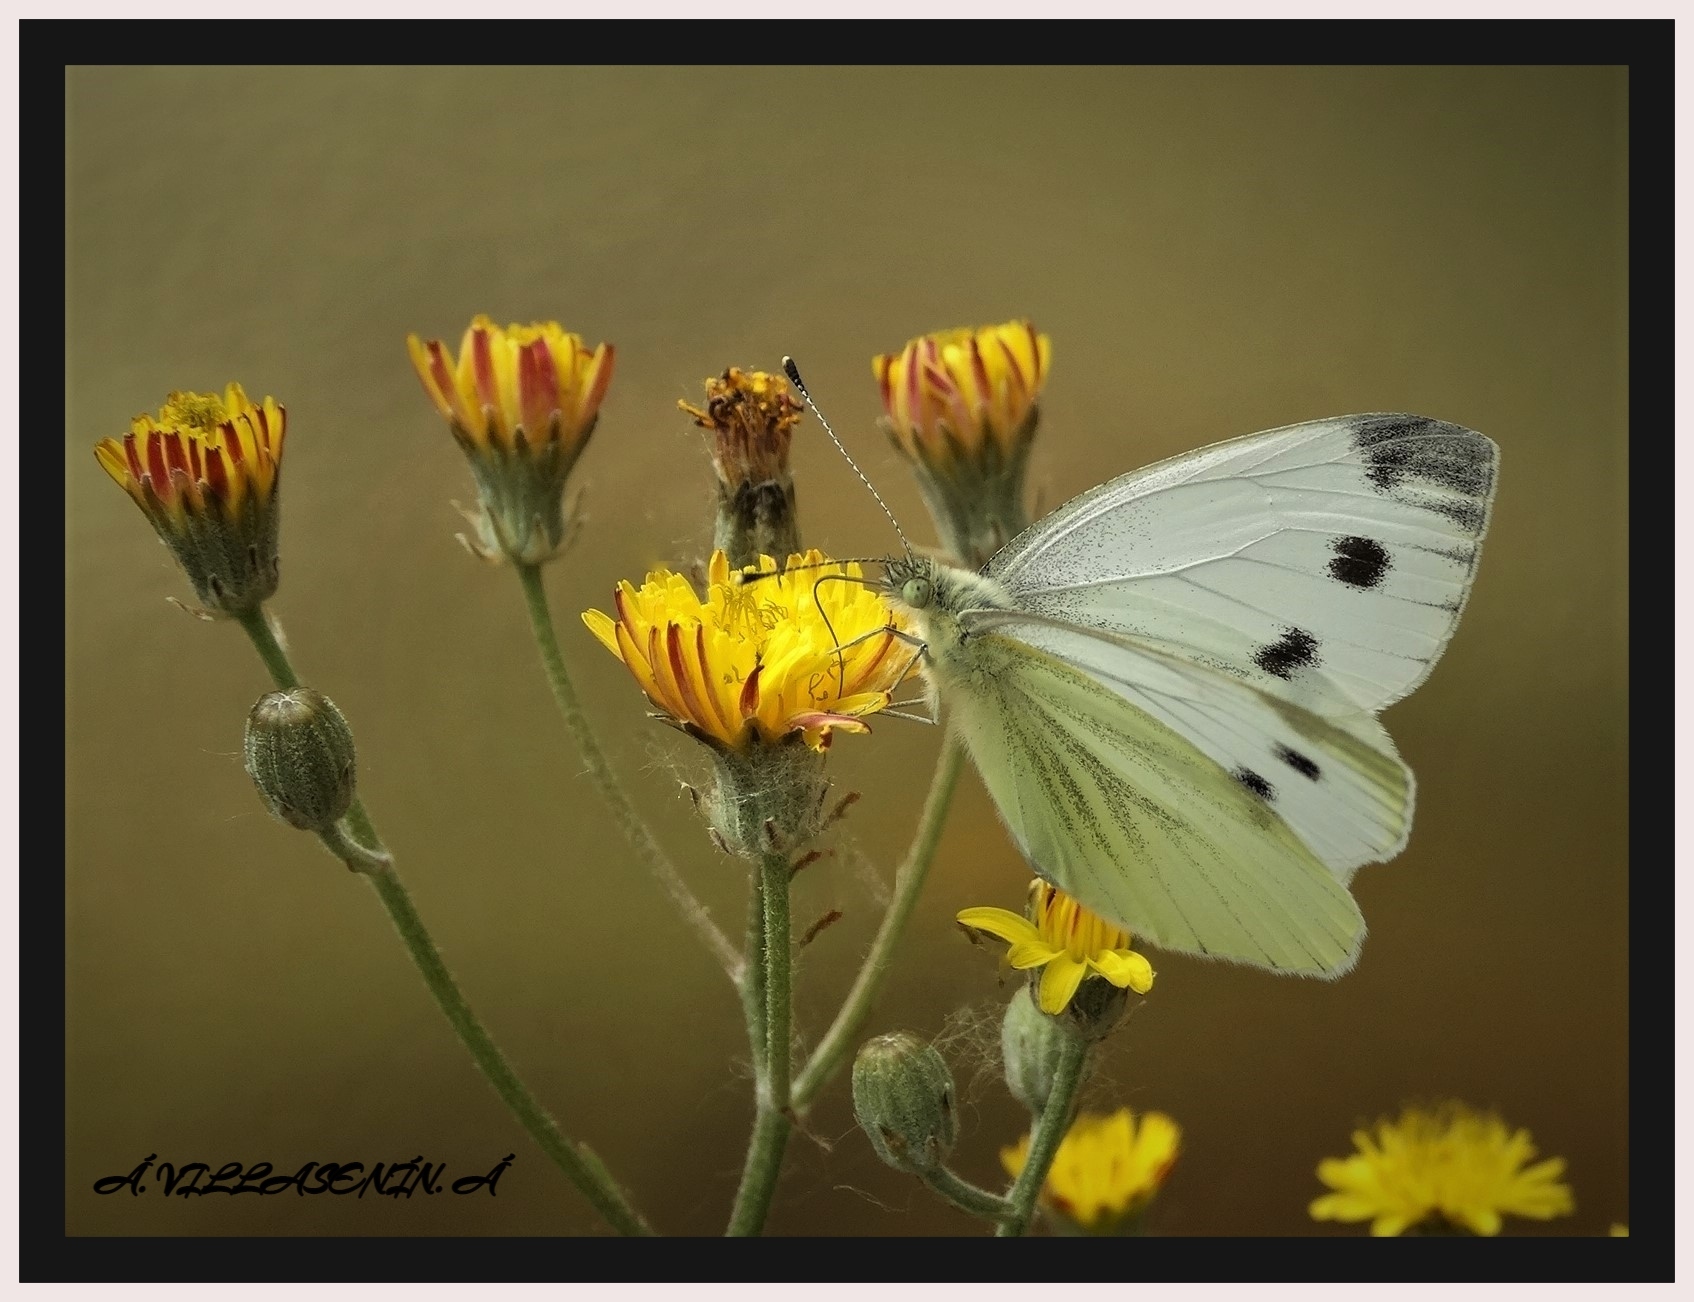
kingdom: Animalia
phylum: Arthropoda
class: Insecta
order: Lepidoptera
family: Pieridae
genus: Pieris
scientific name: Pieris napi
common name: Green-veined white
